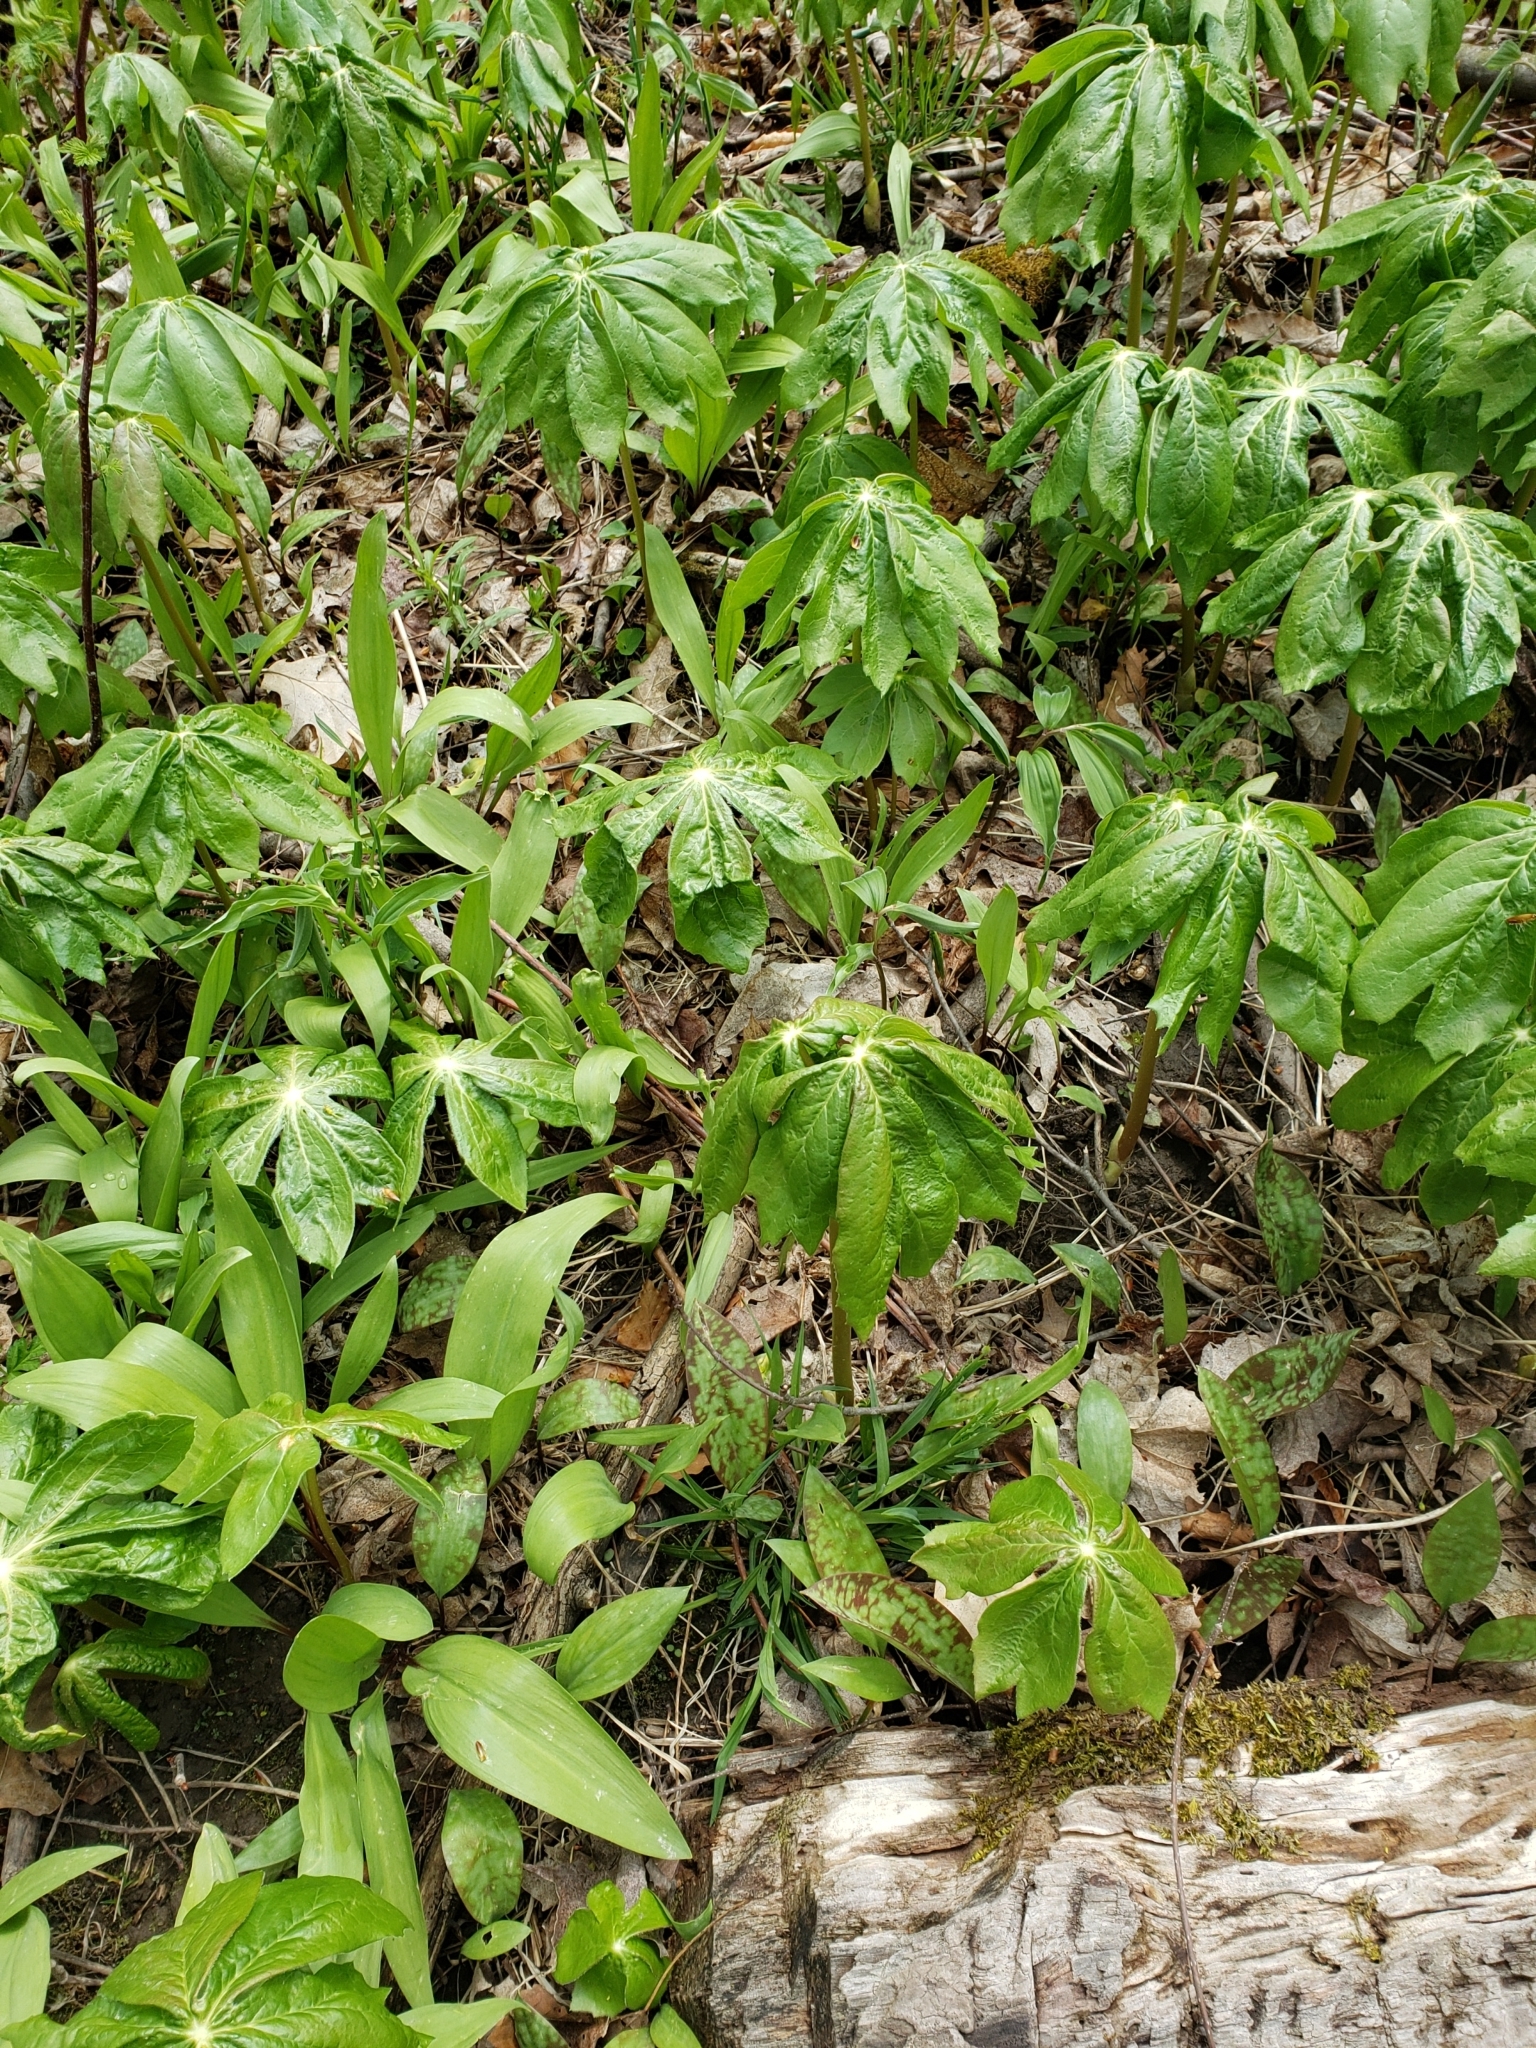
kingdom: Plantae
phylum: Tracheophyta
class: Magnoliopsida
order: Ranunculales
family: Berberidaceae
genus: Podophyllum
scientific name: Podophyllum peltatum
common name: Wild mandrake
